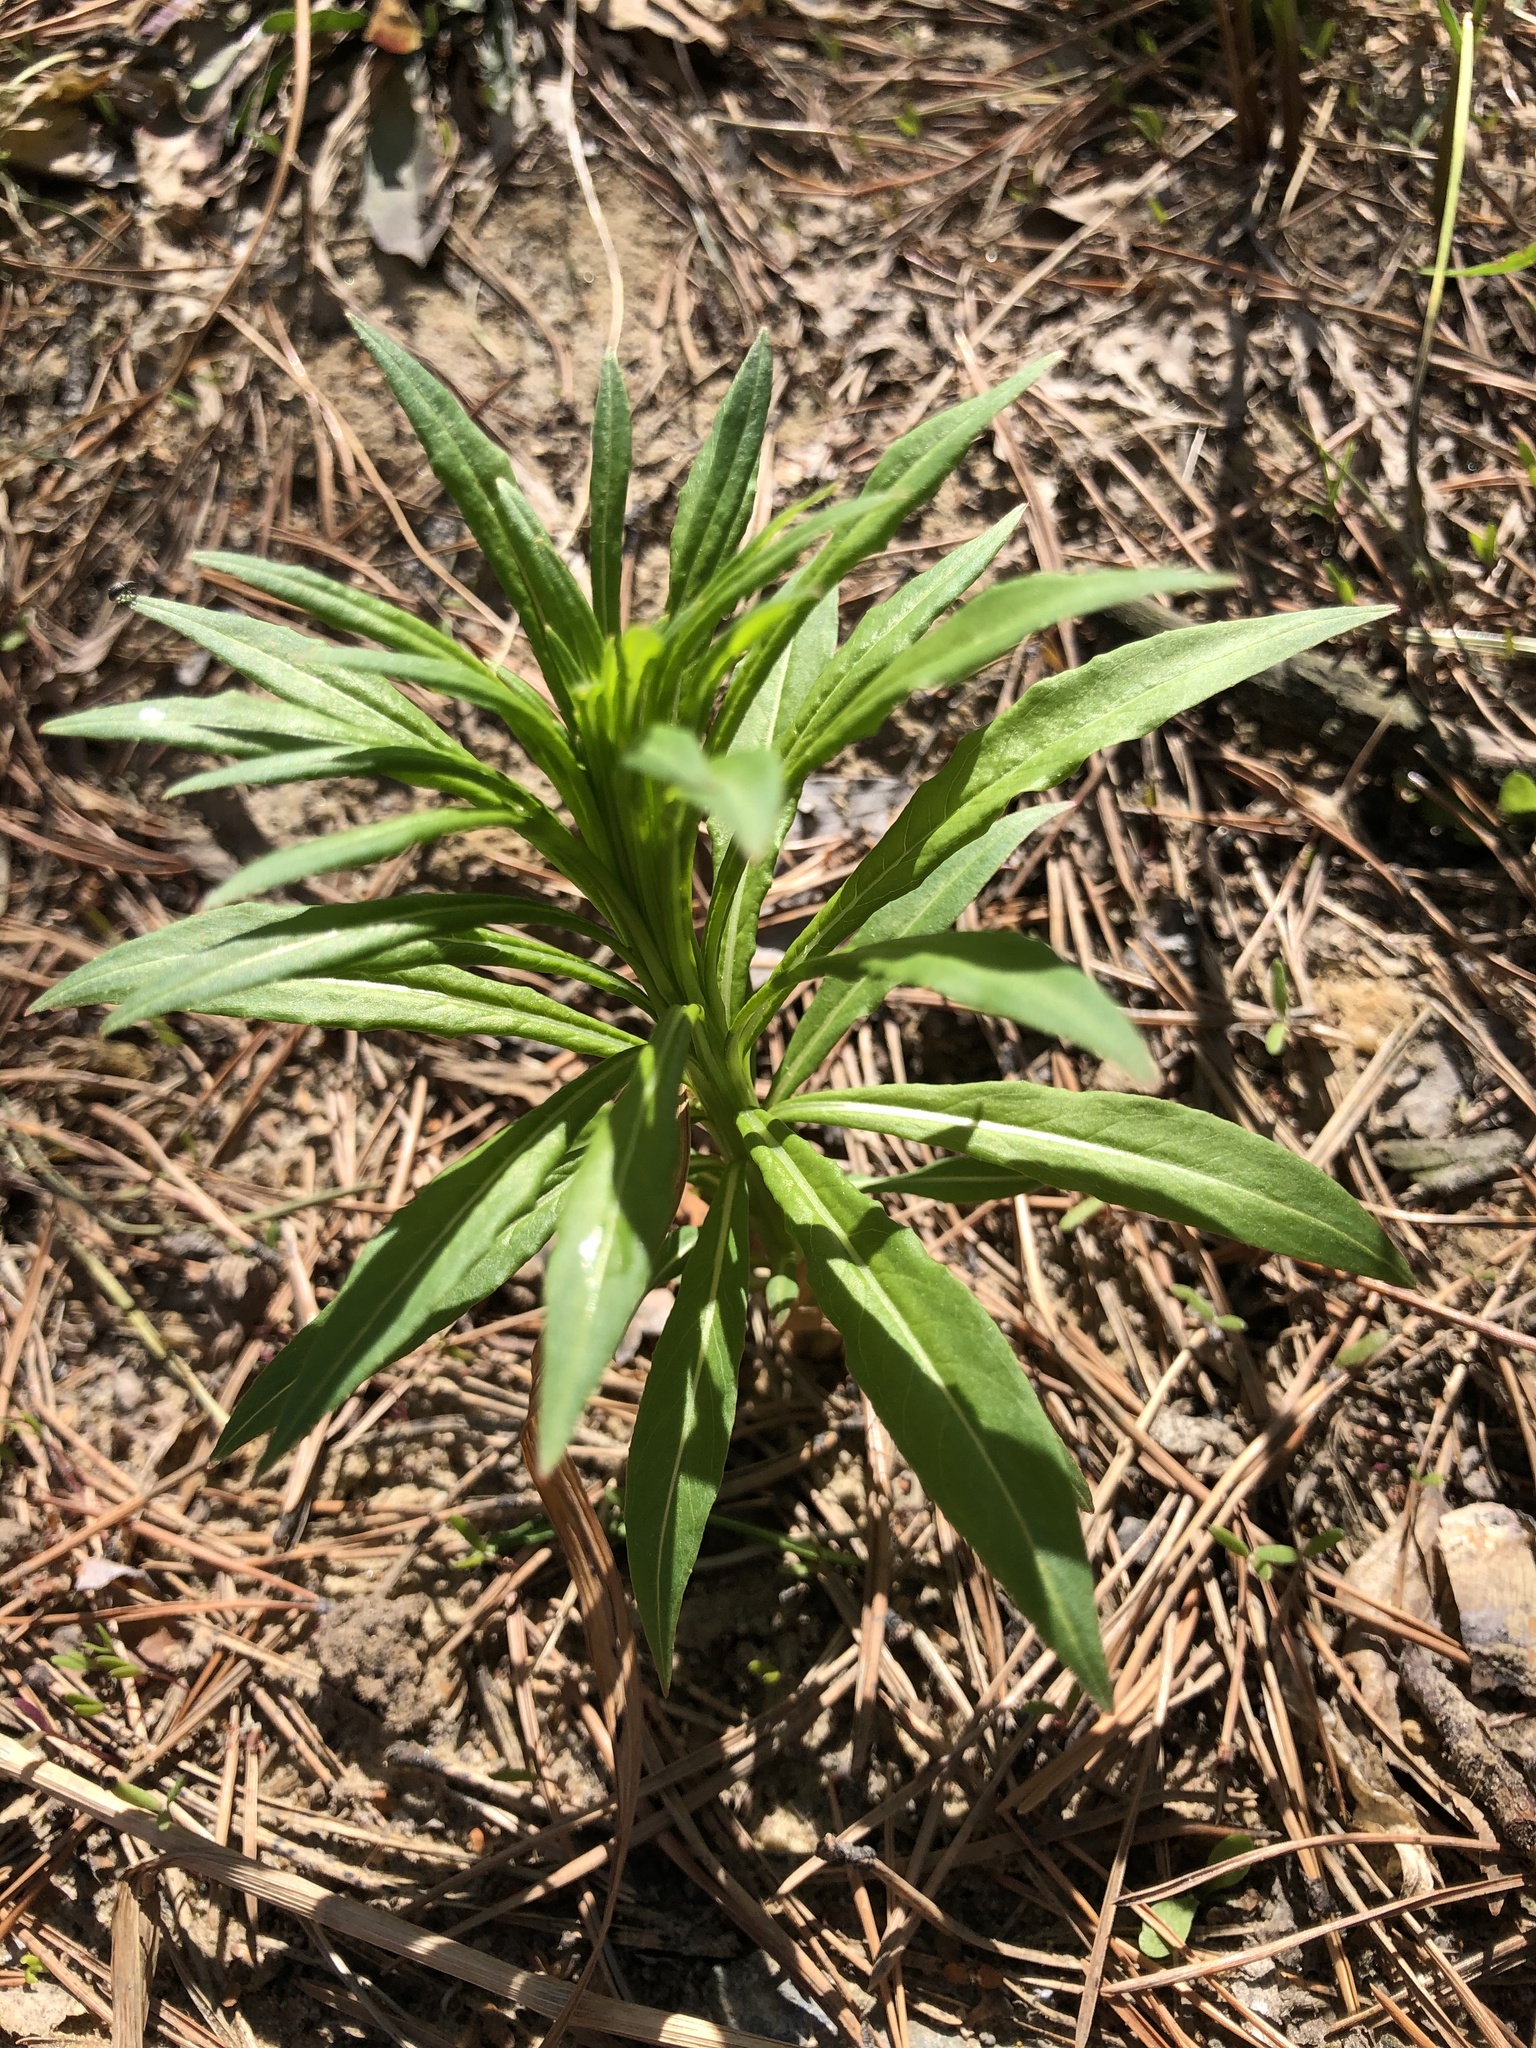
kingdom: Plantae
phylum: Tracheophyta
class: Magnoliopsida
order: Myrtales
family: Onagraceae
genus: Chamaenerion
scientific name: Chamaenerion angustifolium
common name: Fireweed
